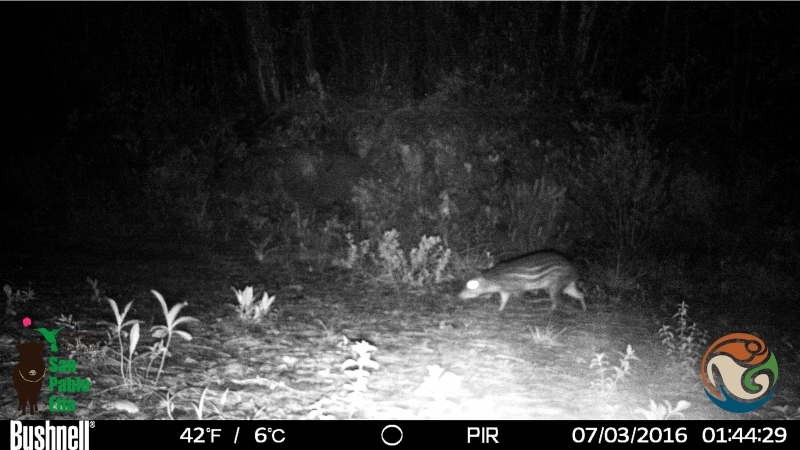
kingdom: Animalia
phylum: Chordata
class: Mammalia
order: Rodentia
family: Cuniculidae
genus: Cuniculus
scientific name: Cuniculus paca
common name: Lowland paca
